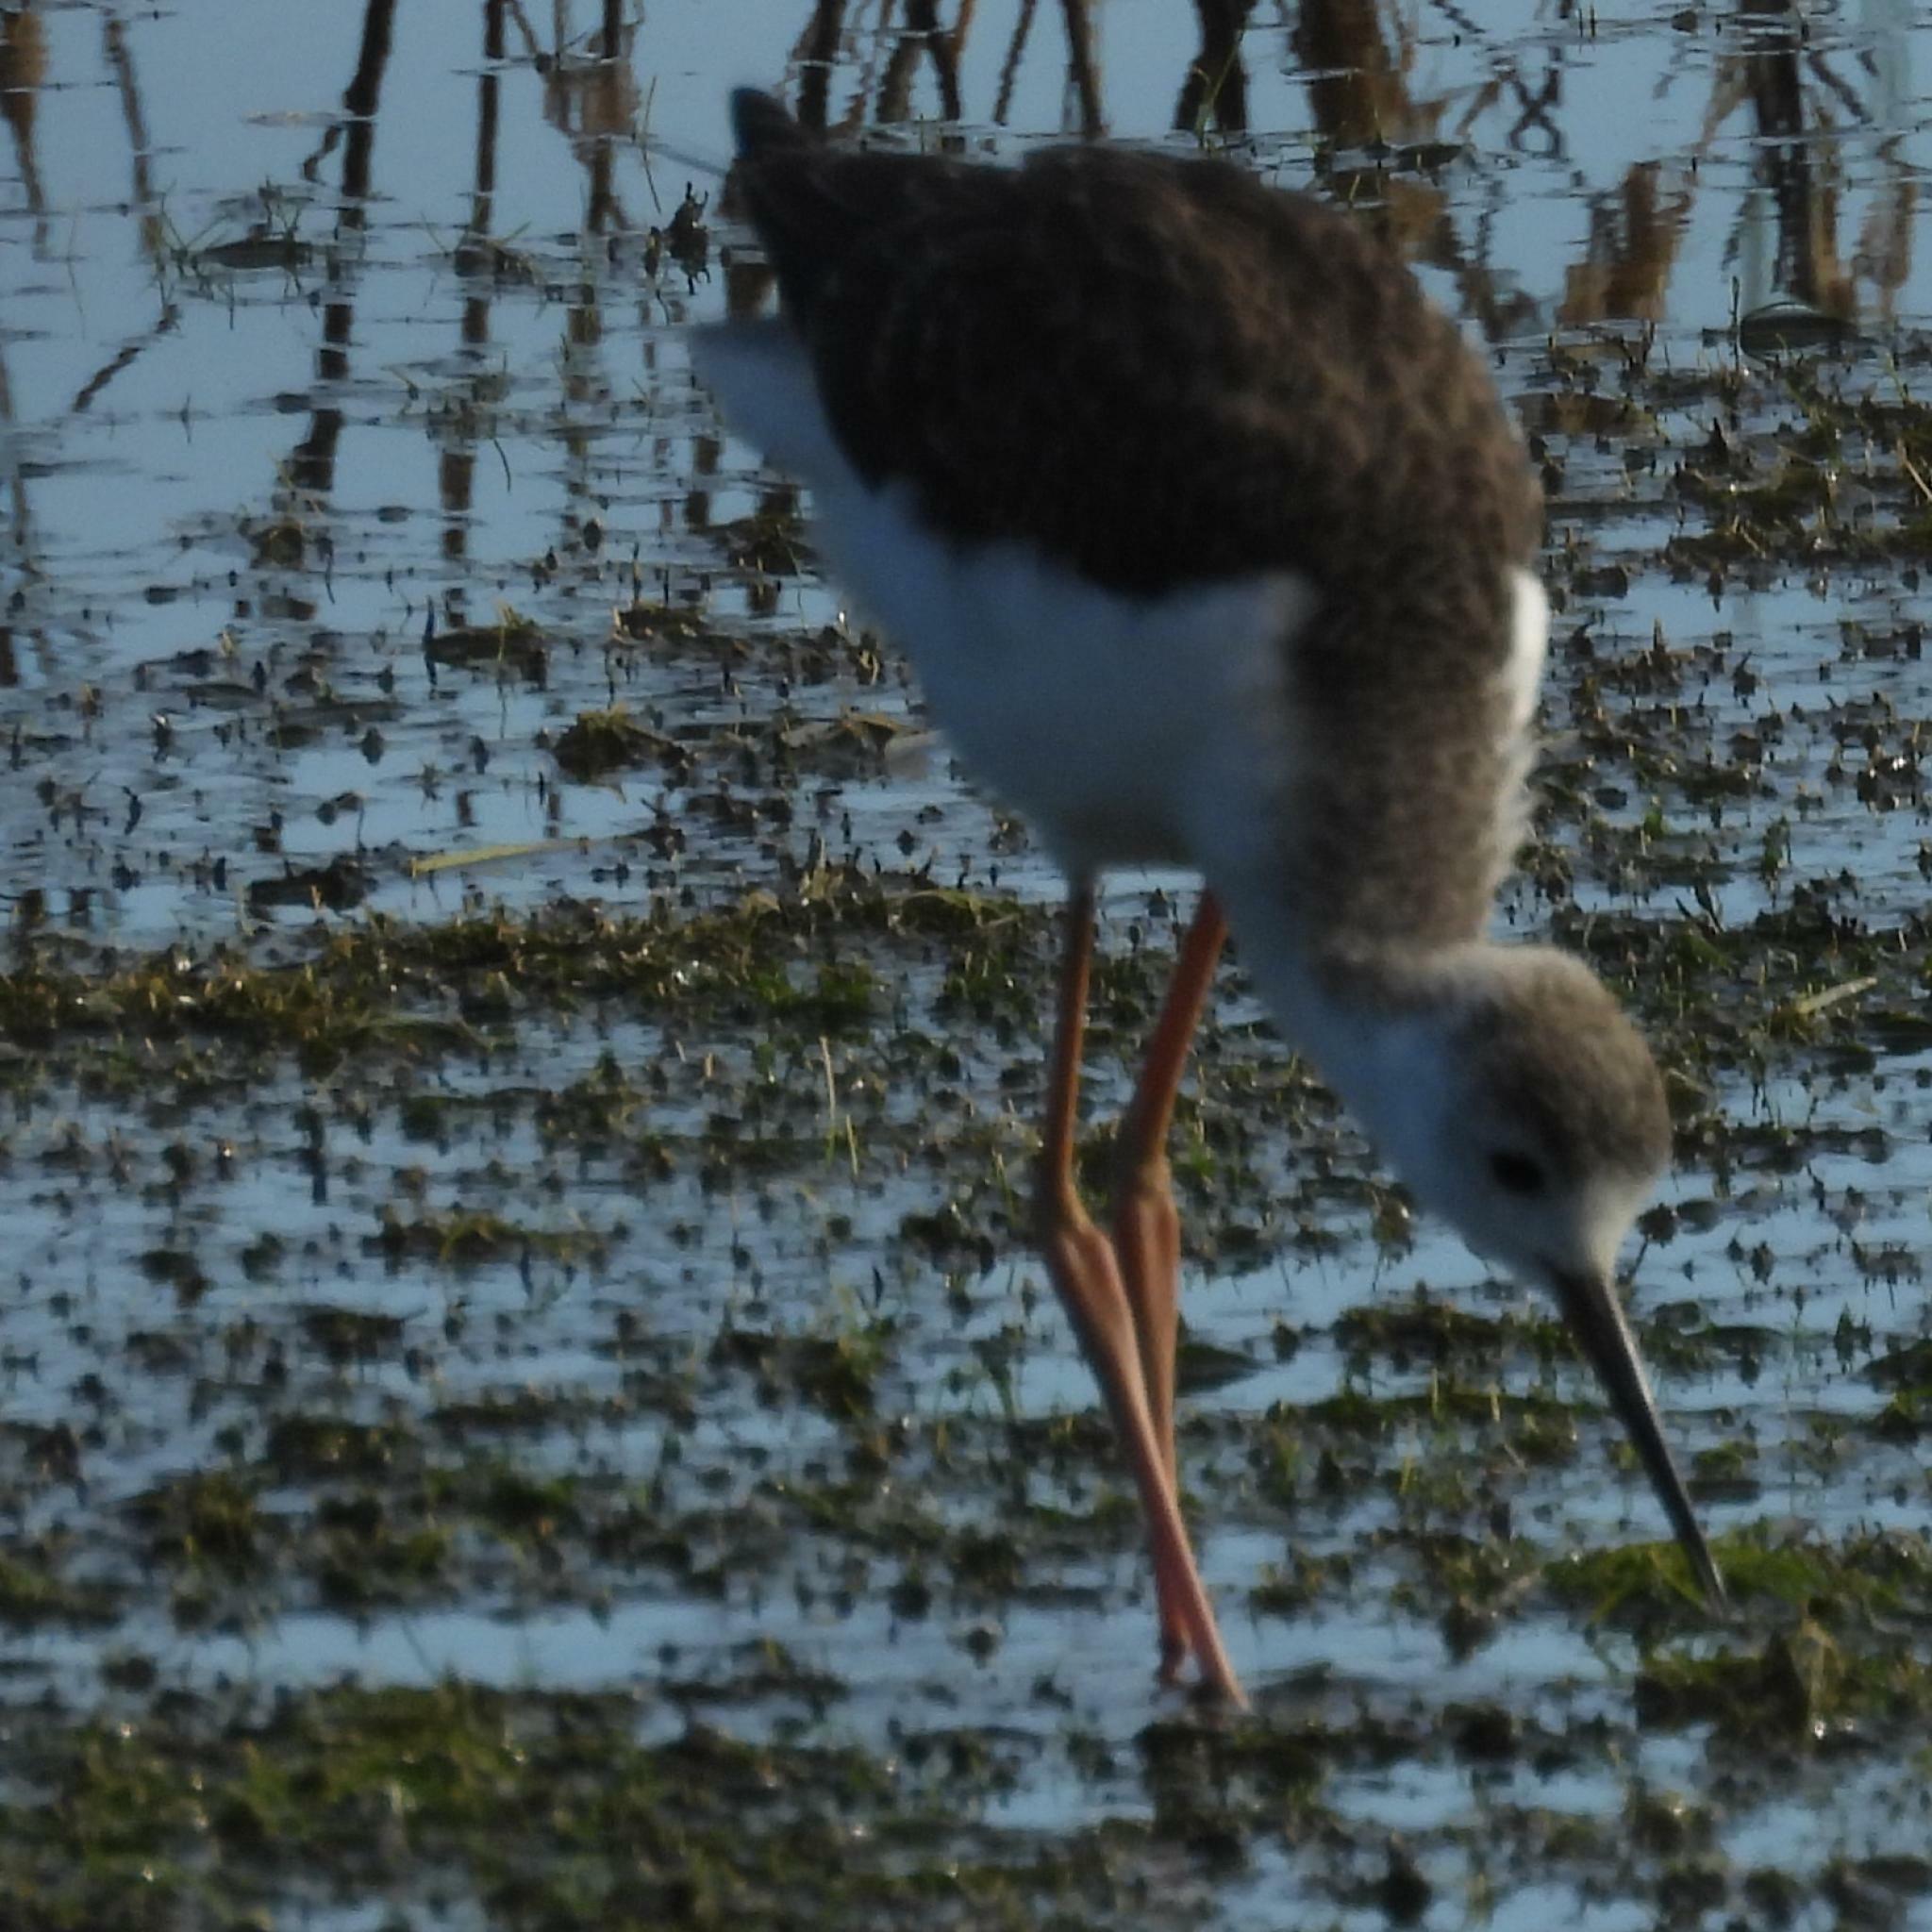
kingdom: Animalia
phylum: Chordata
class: Aves
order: Charadriiformes
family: Recurvirostridae
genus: Himantopus
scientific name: Himantopus himantopus
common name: Black-winged stilt
